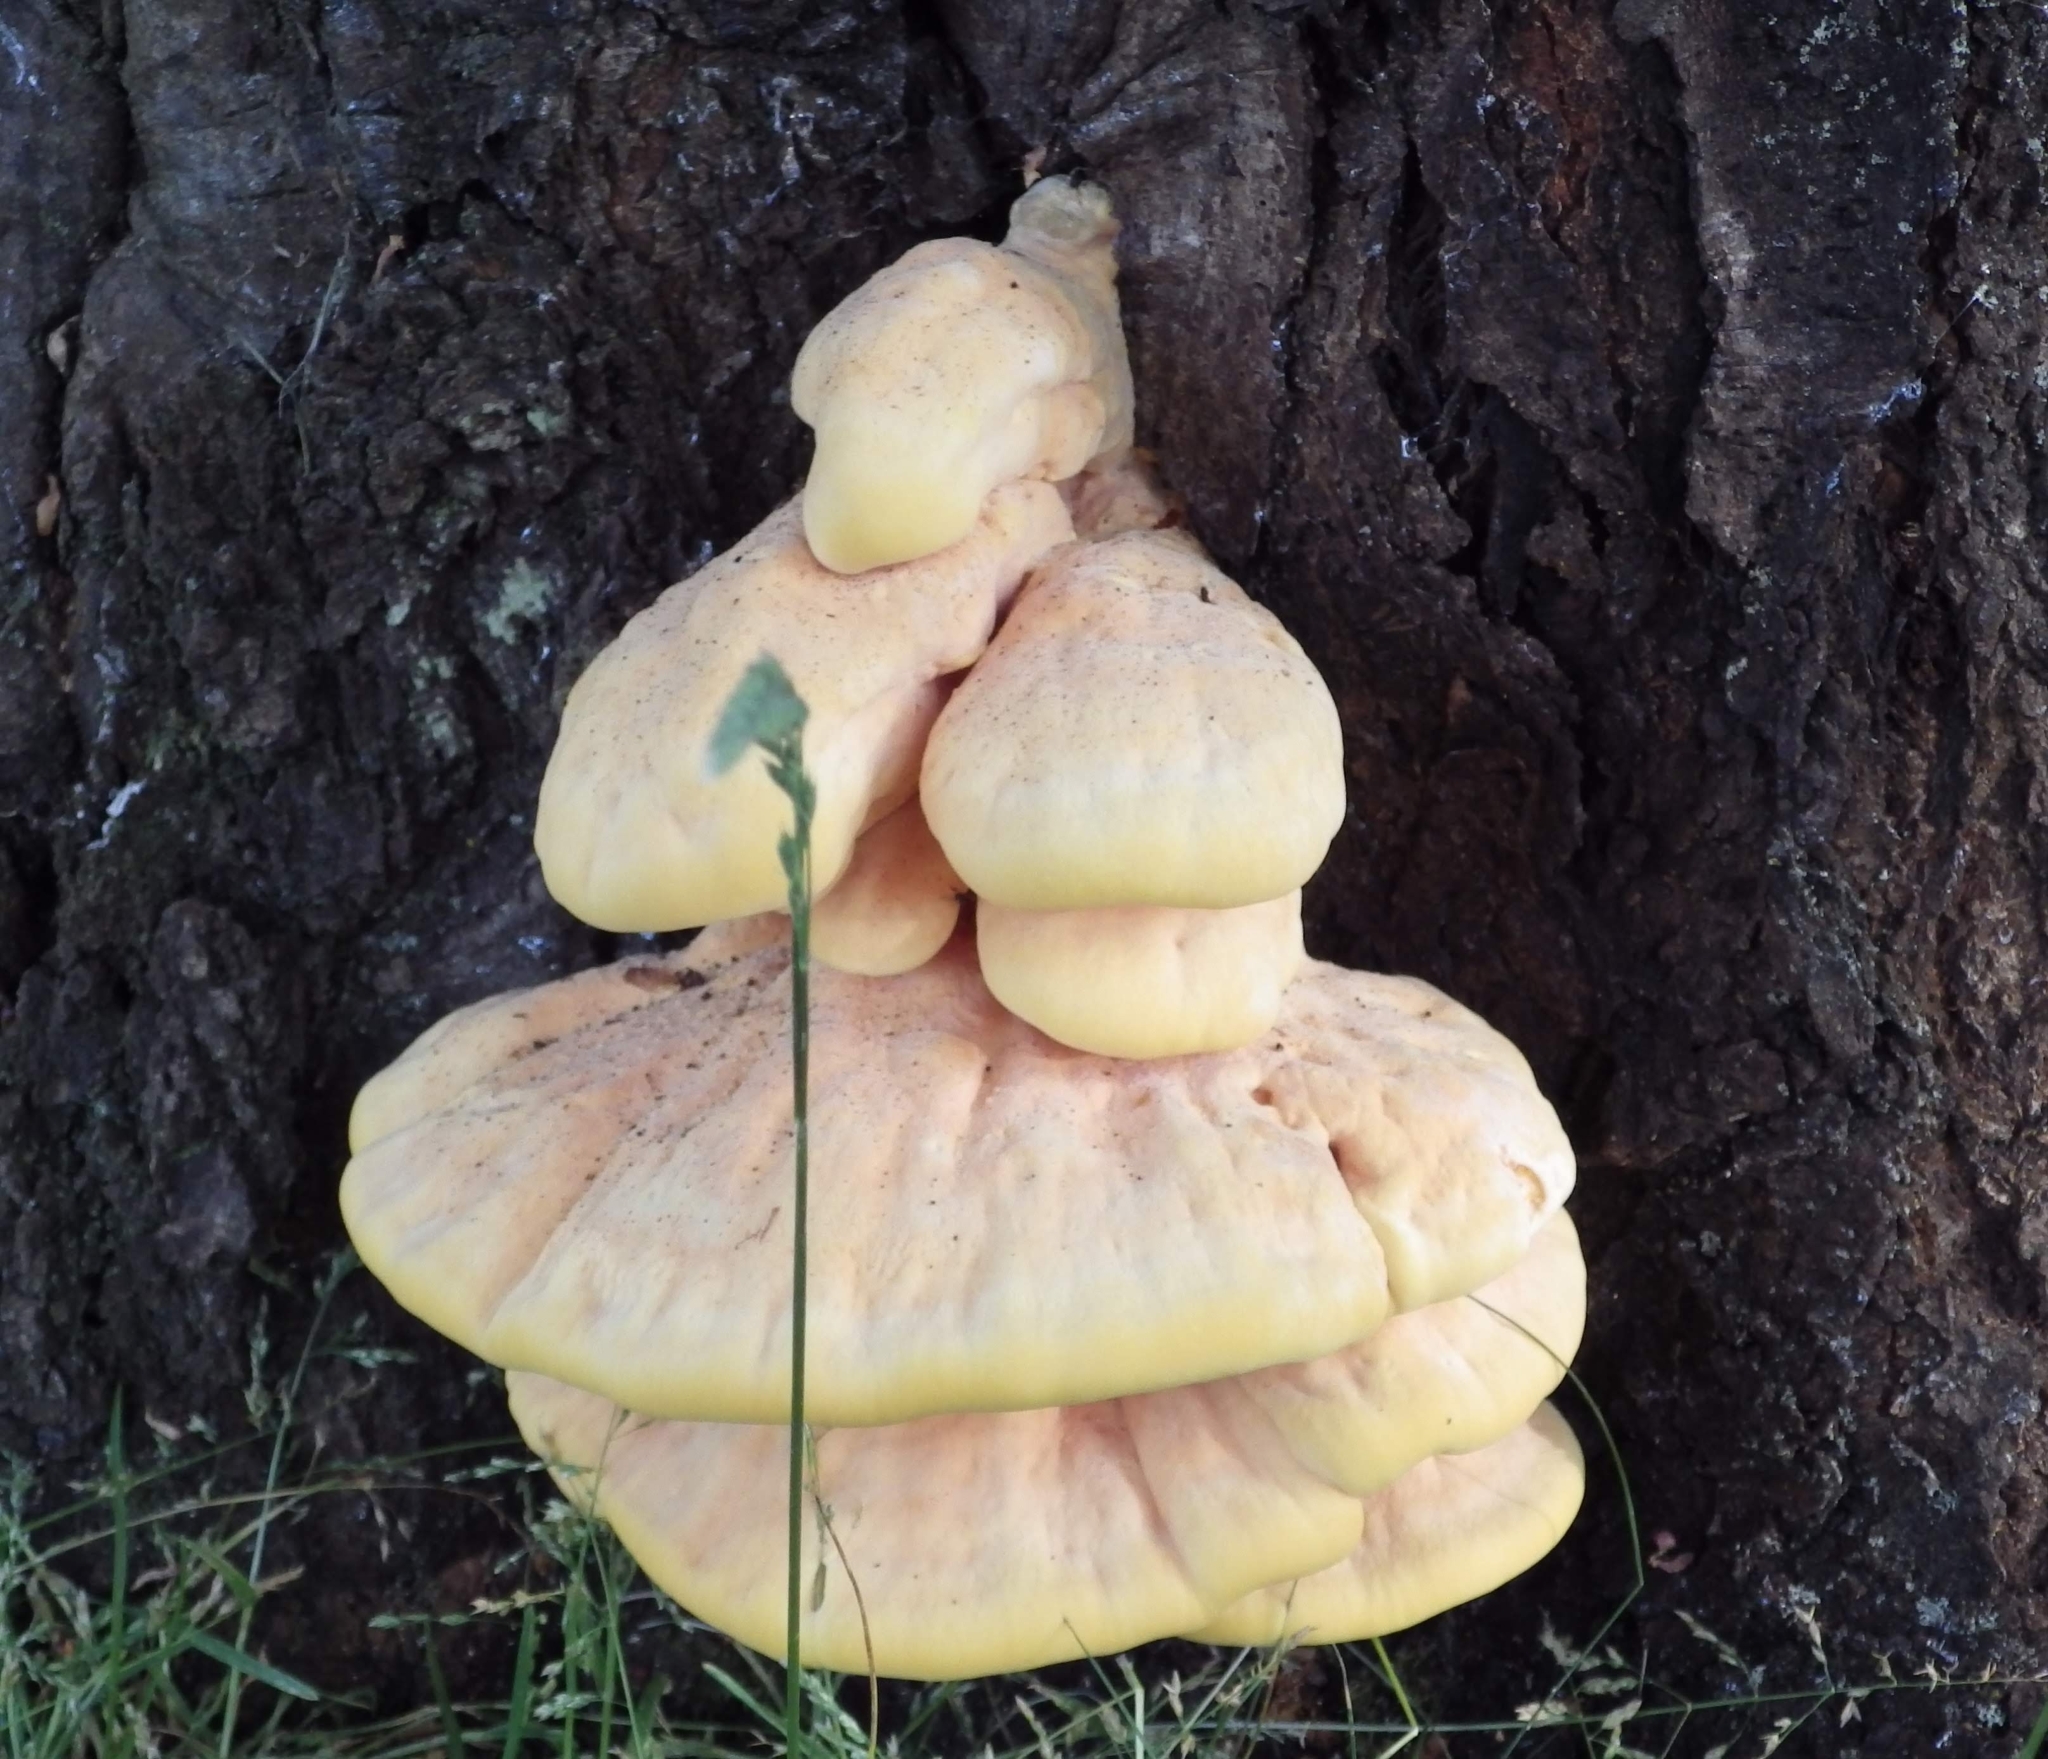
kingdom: Fungi
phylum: Basidiomycota
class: Agaricomycetes
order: Polyporales
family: Laetiporaceae
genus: Laetiporus
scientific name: Laetiporus sulphureus
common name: Chicken of the woods
